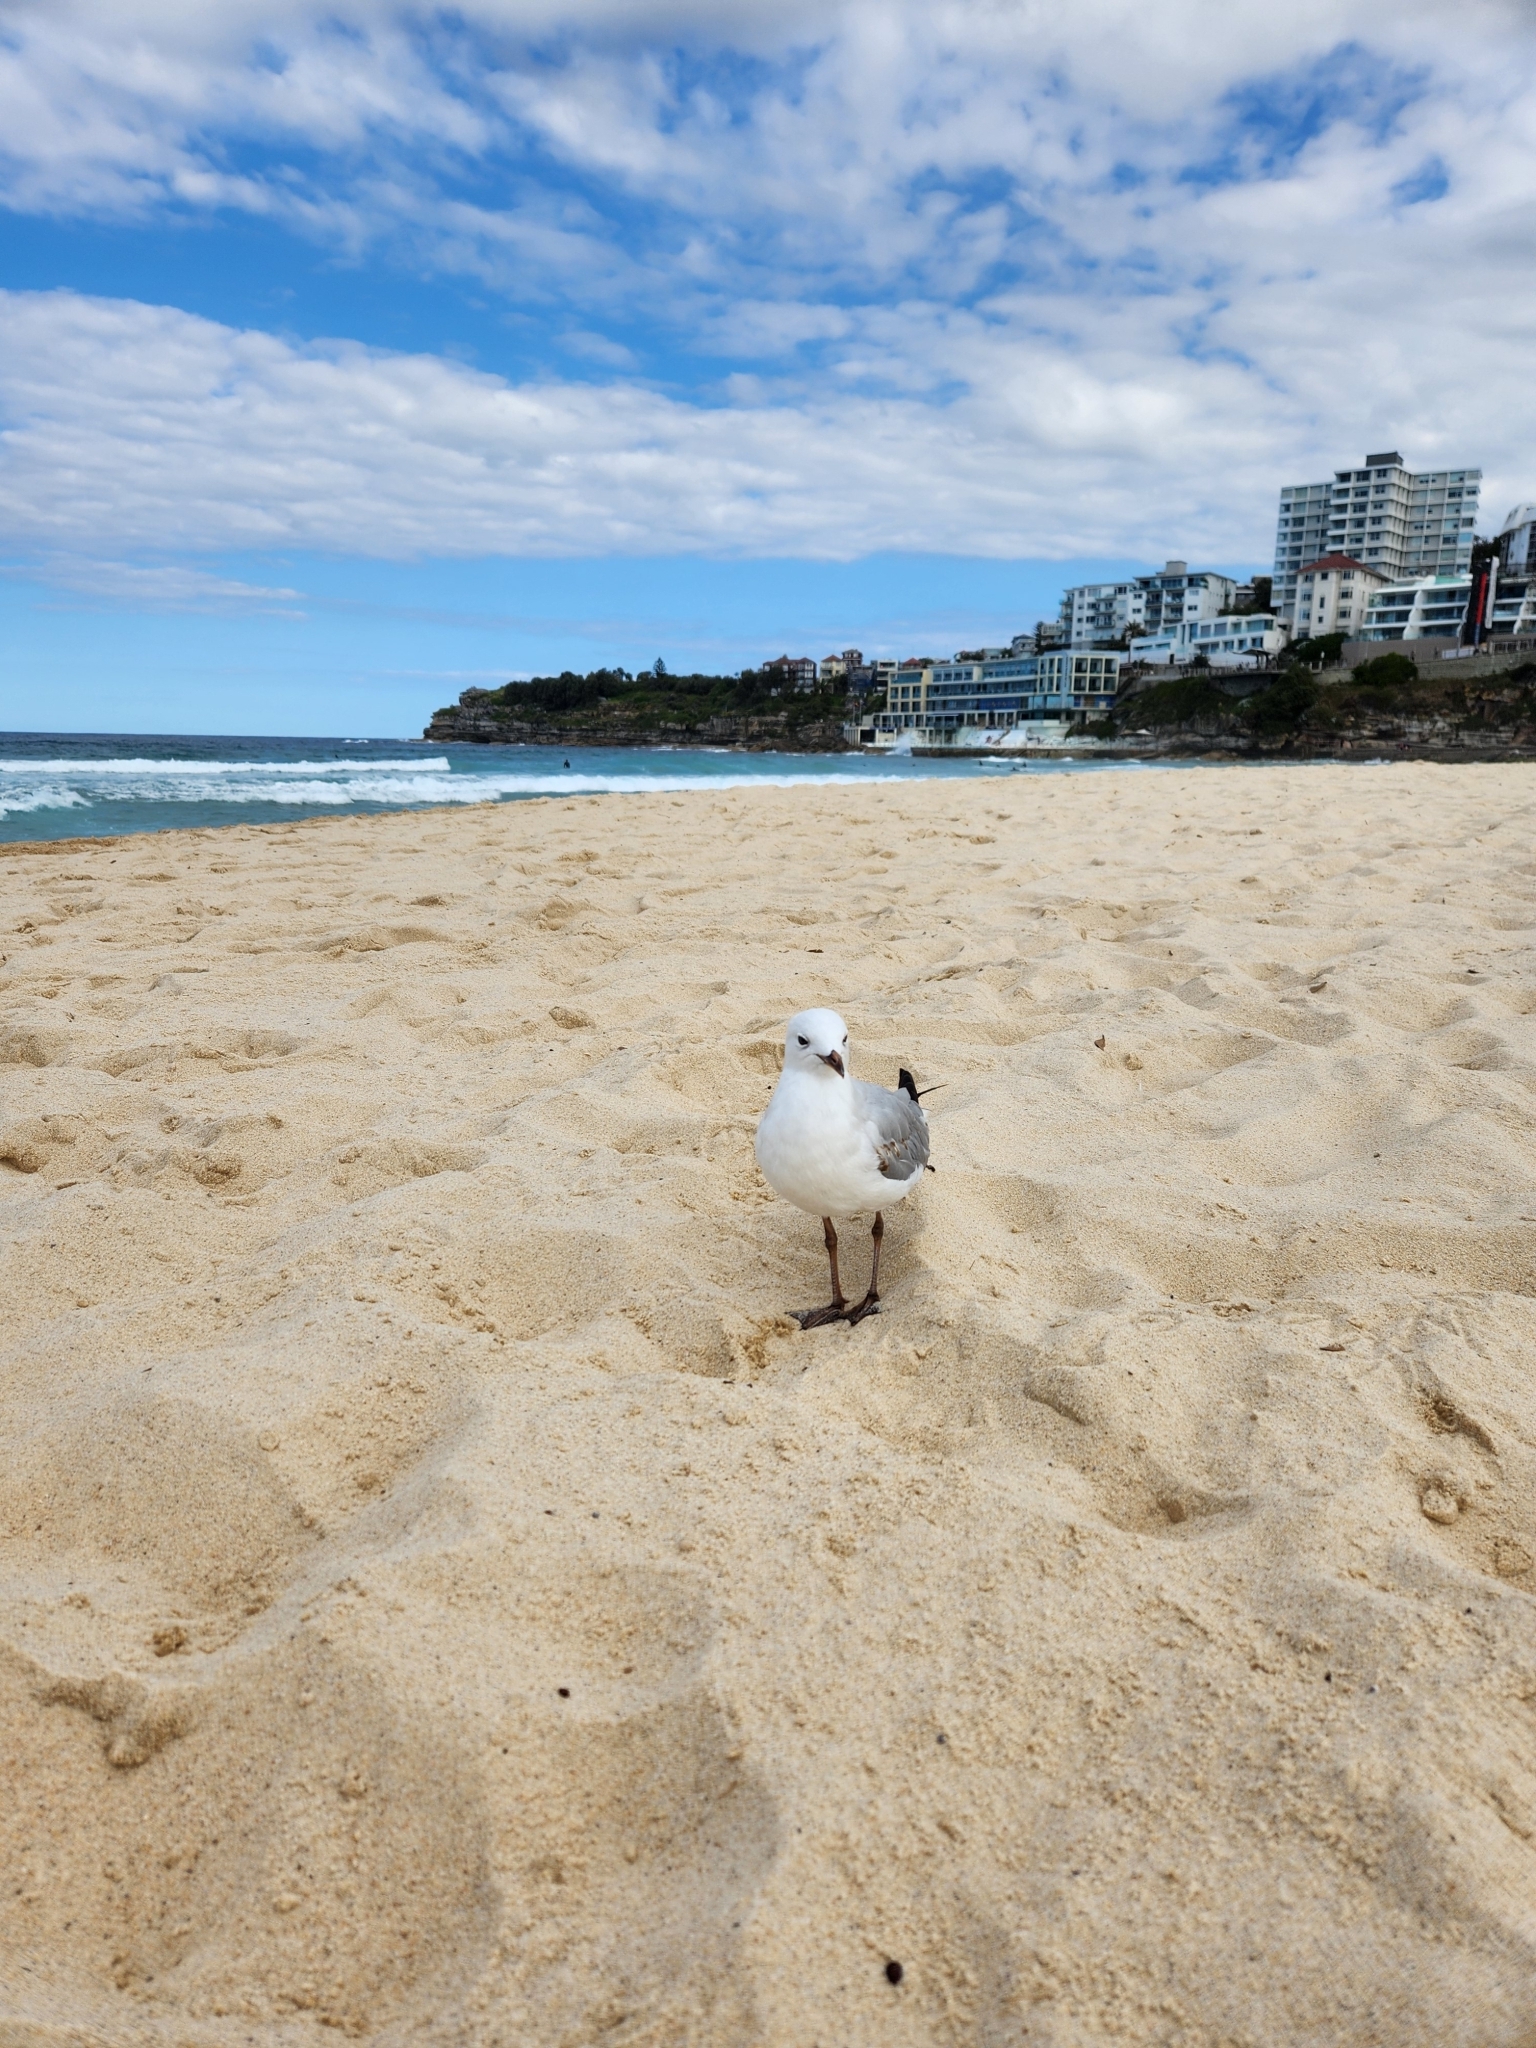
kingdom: Animalia
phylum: Chordata
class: Aves
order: Charadriiformes
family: Laridae
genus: Chroicocephalus
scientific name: Chroicocephalus novaehollandiae
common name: Silver gull
